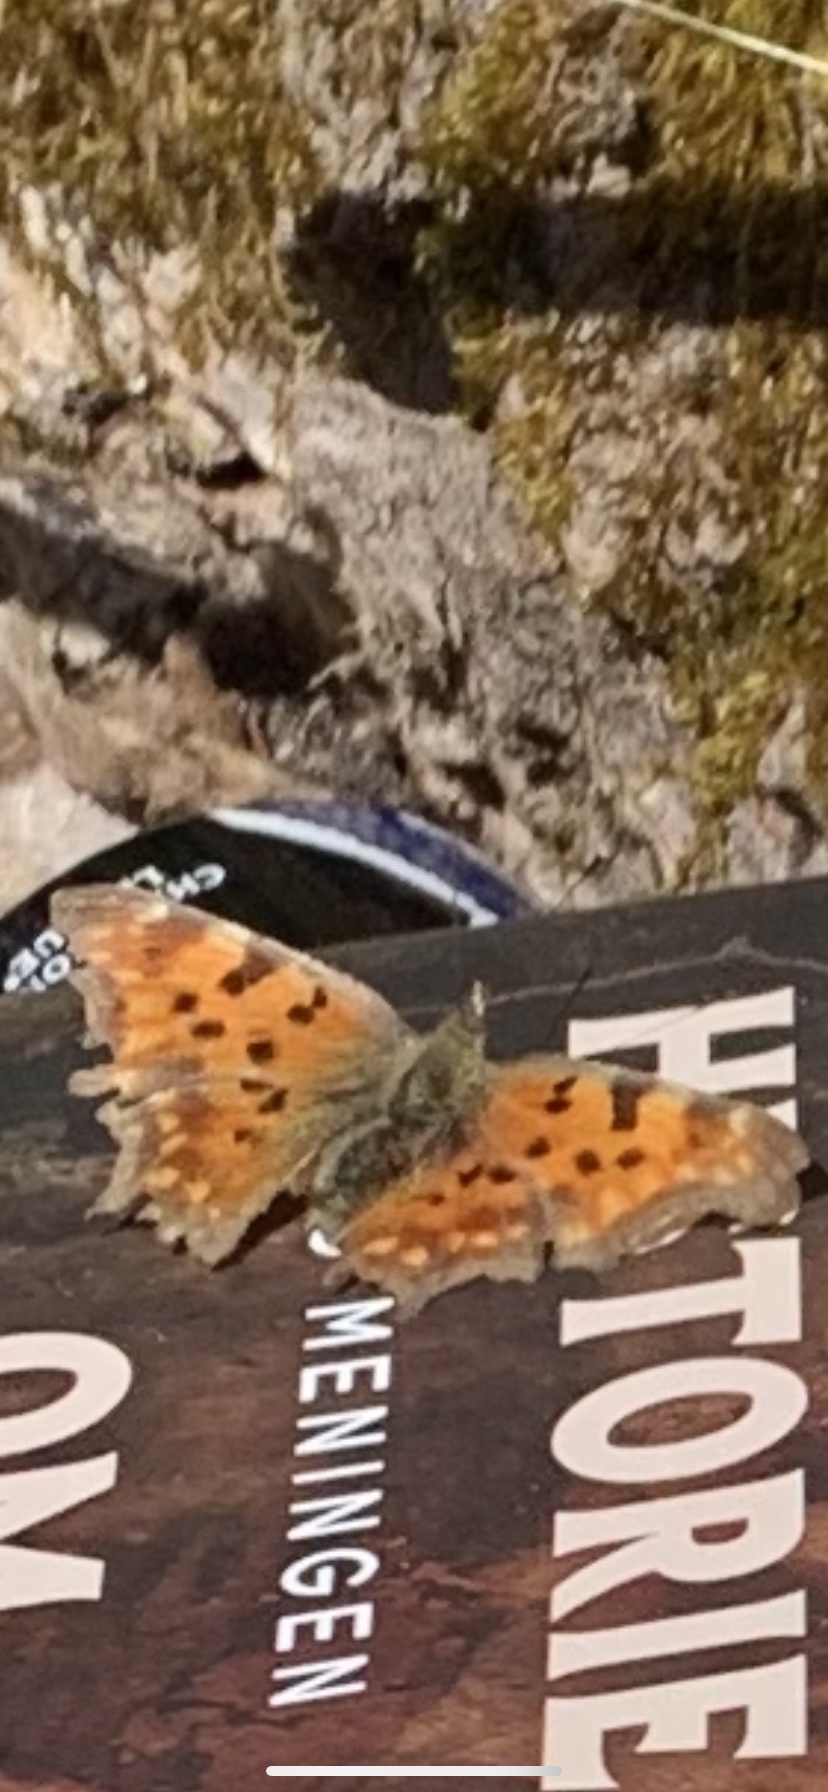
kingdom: Animalia
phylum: Arthropoda
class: Insecta
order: Lepidoptera
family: Nymphalidae
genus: Polygonia
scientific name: Polygonia c-album
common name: Comma
